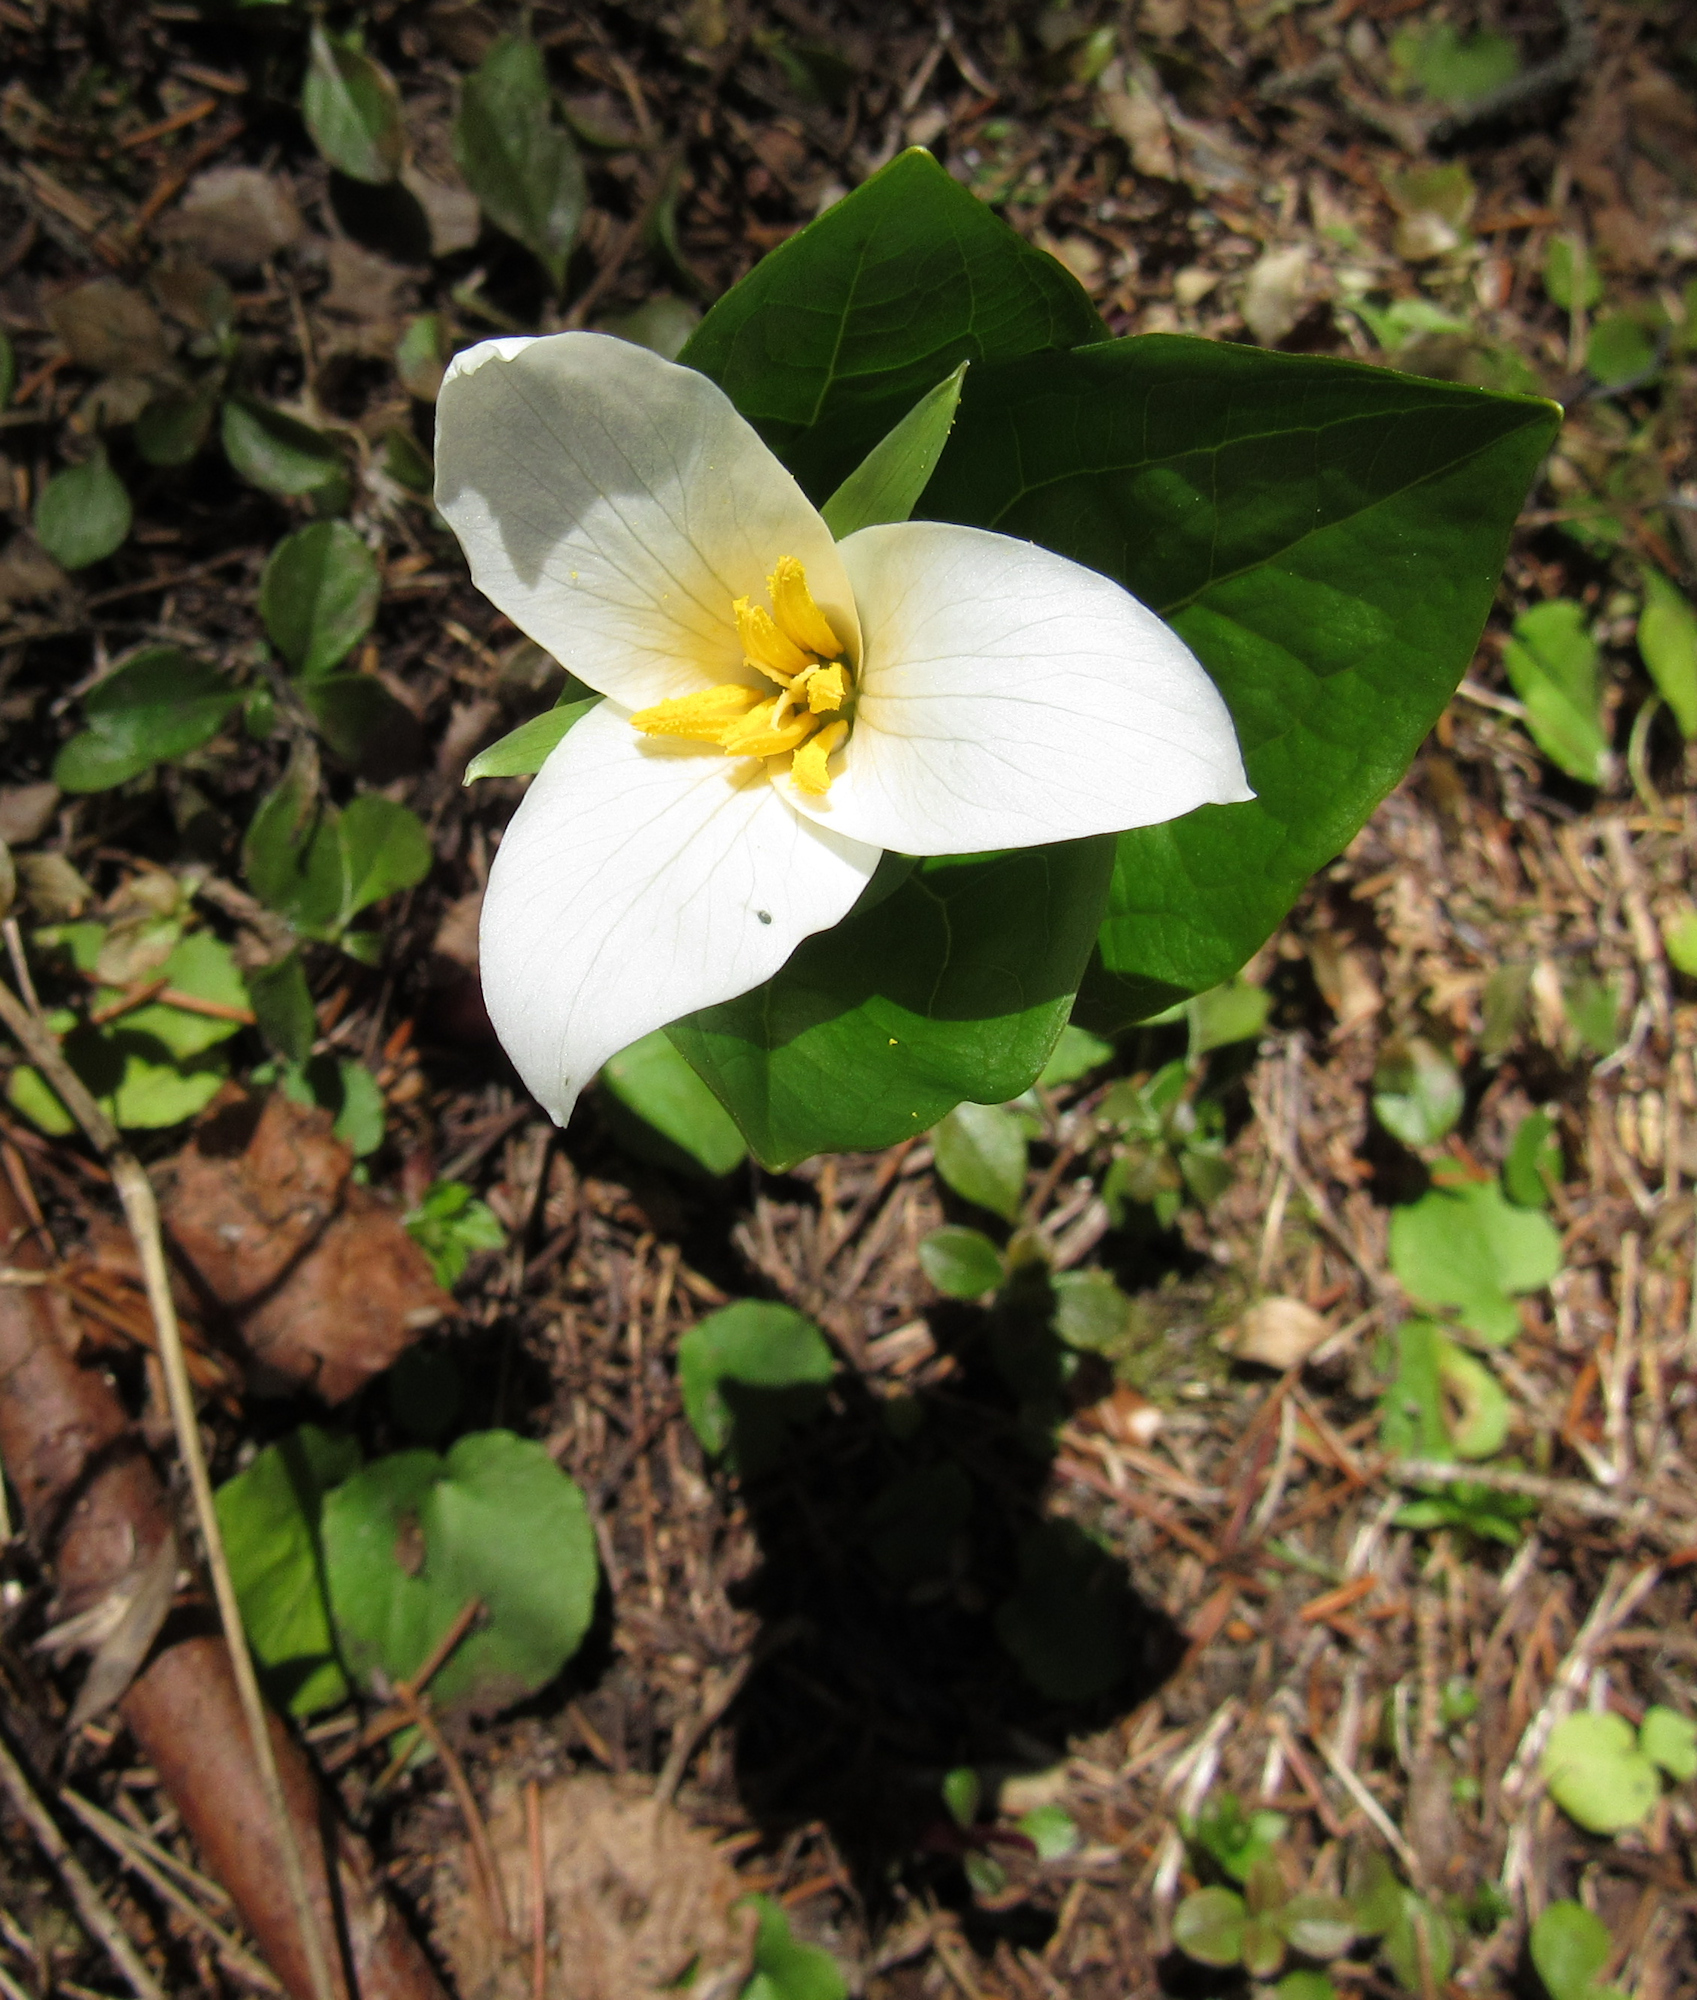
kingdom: Plantae
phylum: Tracheophyta
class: Liliopsida
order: Liliales
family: Melanthiaceae
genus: Trillium
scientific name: Trillium ovatum
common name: Pacific trillium
